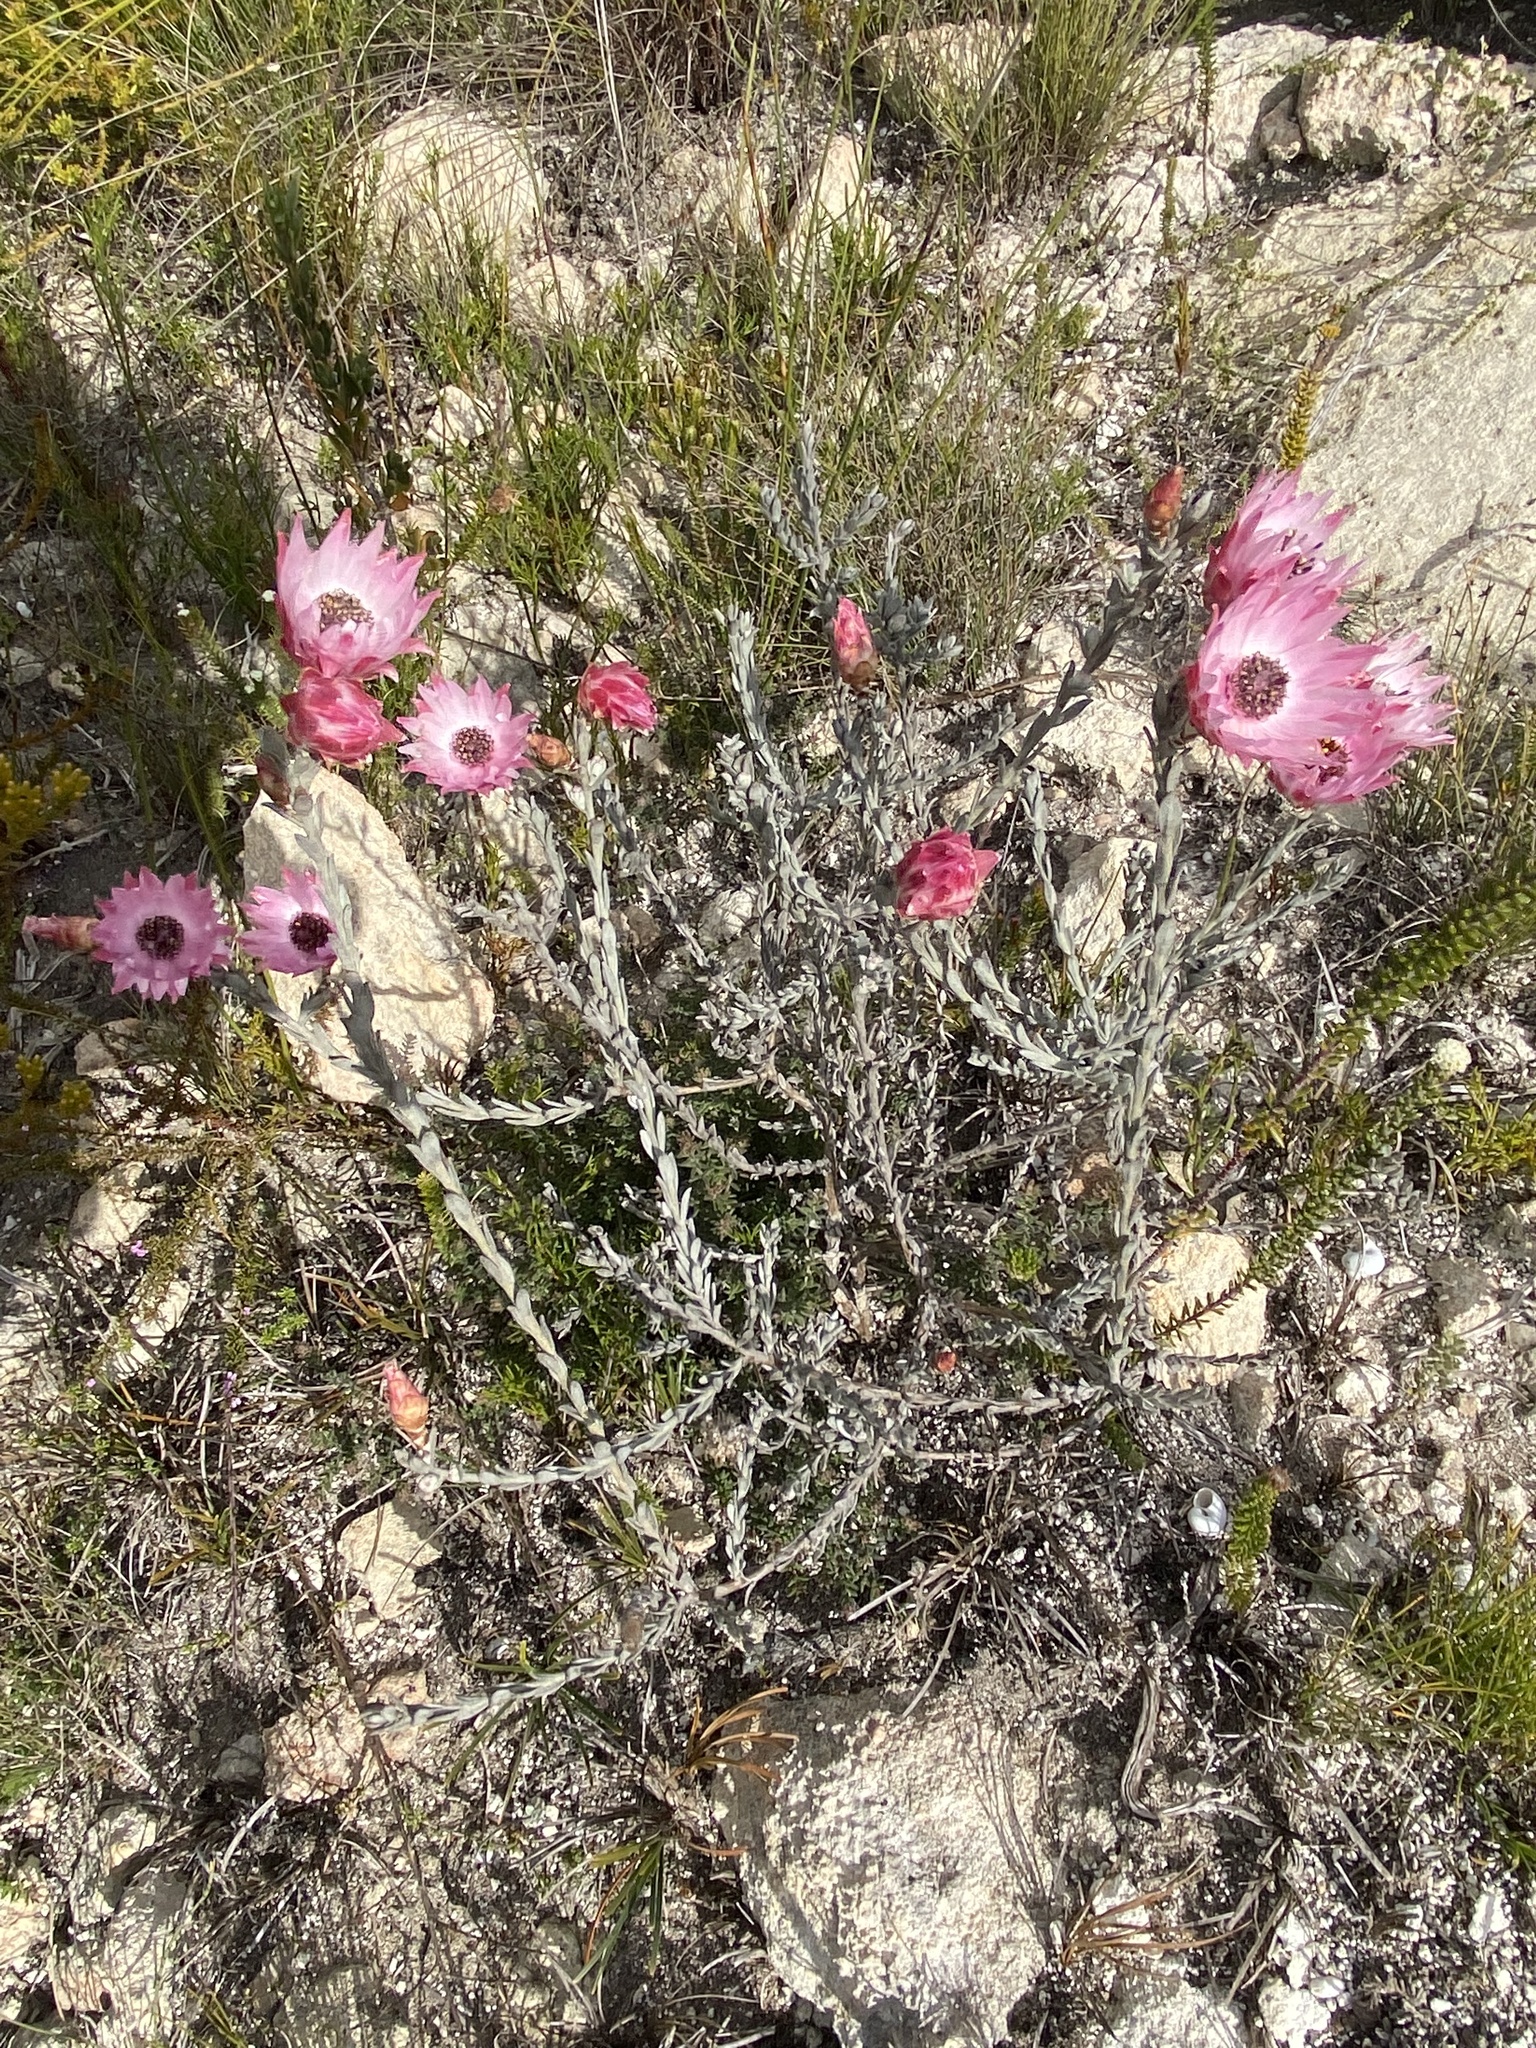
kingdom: Plantae
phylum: Tracheophyta
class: Magnoliopsida
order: Asterales
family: Asteraceae
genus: Syncarpha
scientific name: Syncarpha canescens
